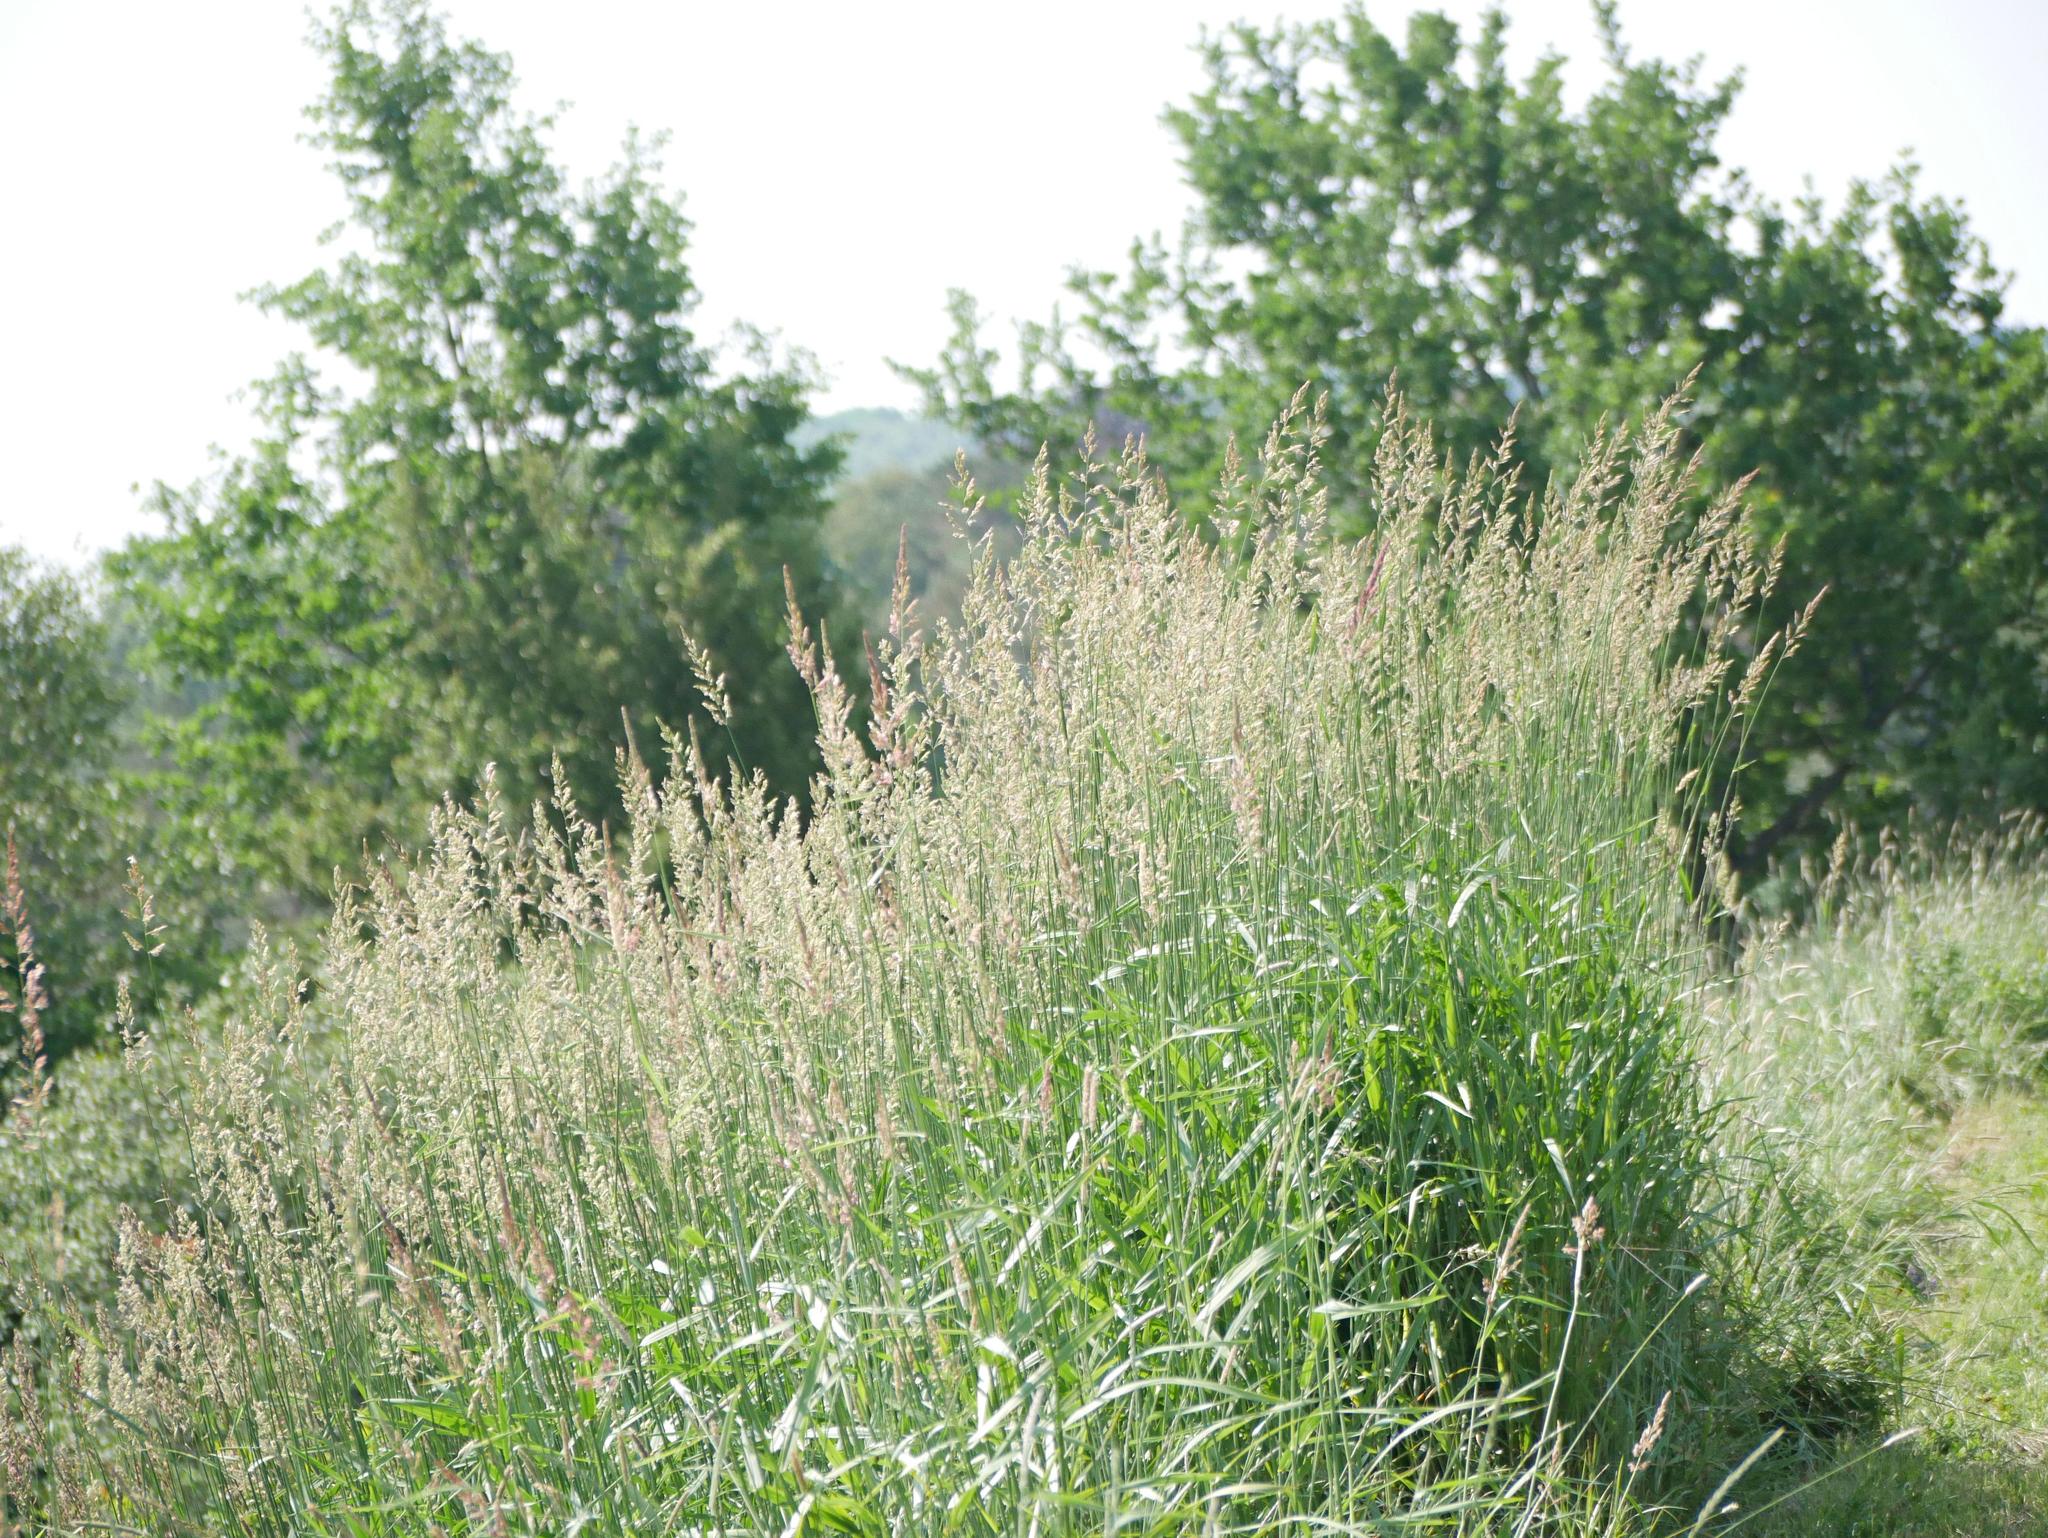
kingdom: Plantae
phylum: Tracheophyta
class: Liliopsida
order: Poales
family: Poaceae
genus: Phalaris
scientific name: Phalaris arundinacea
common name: Reed canary-grass
